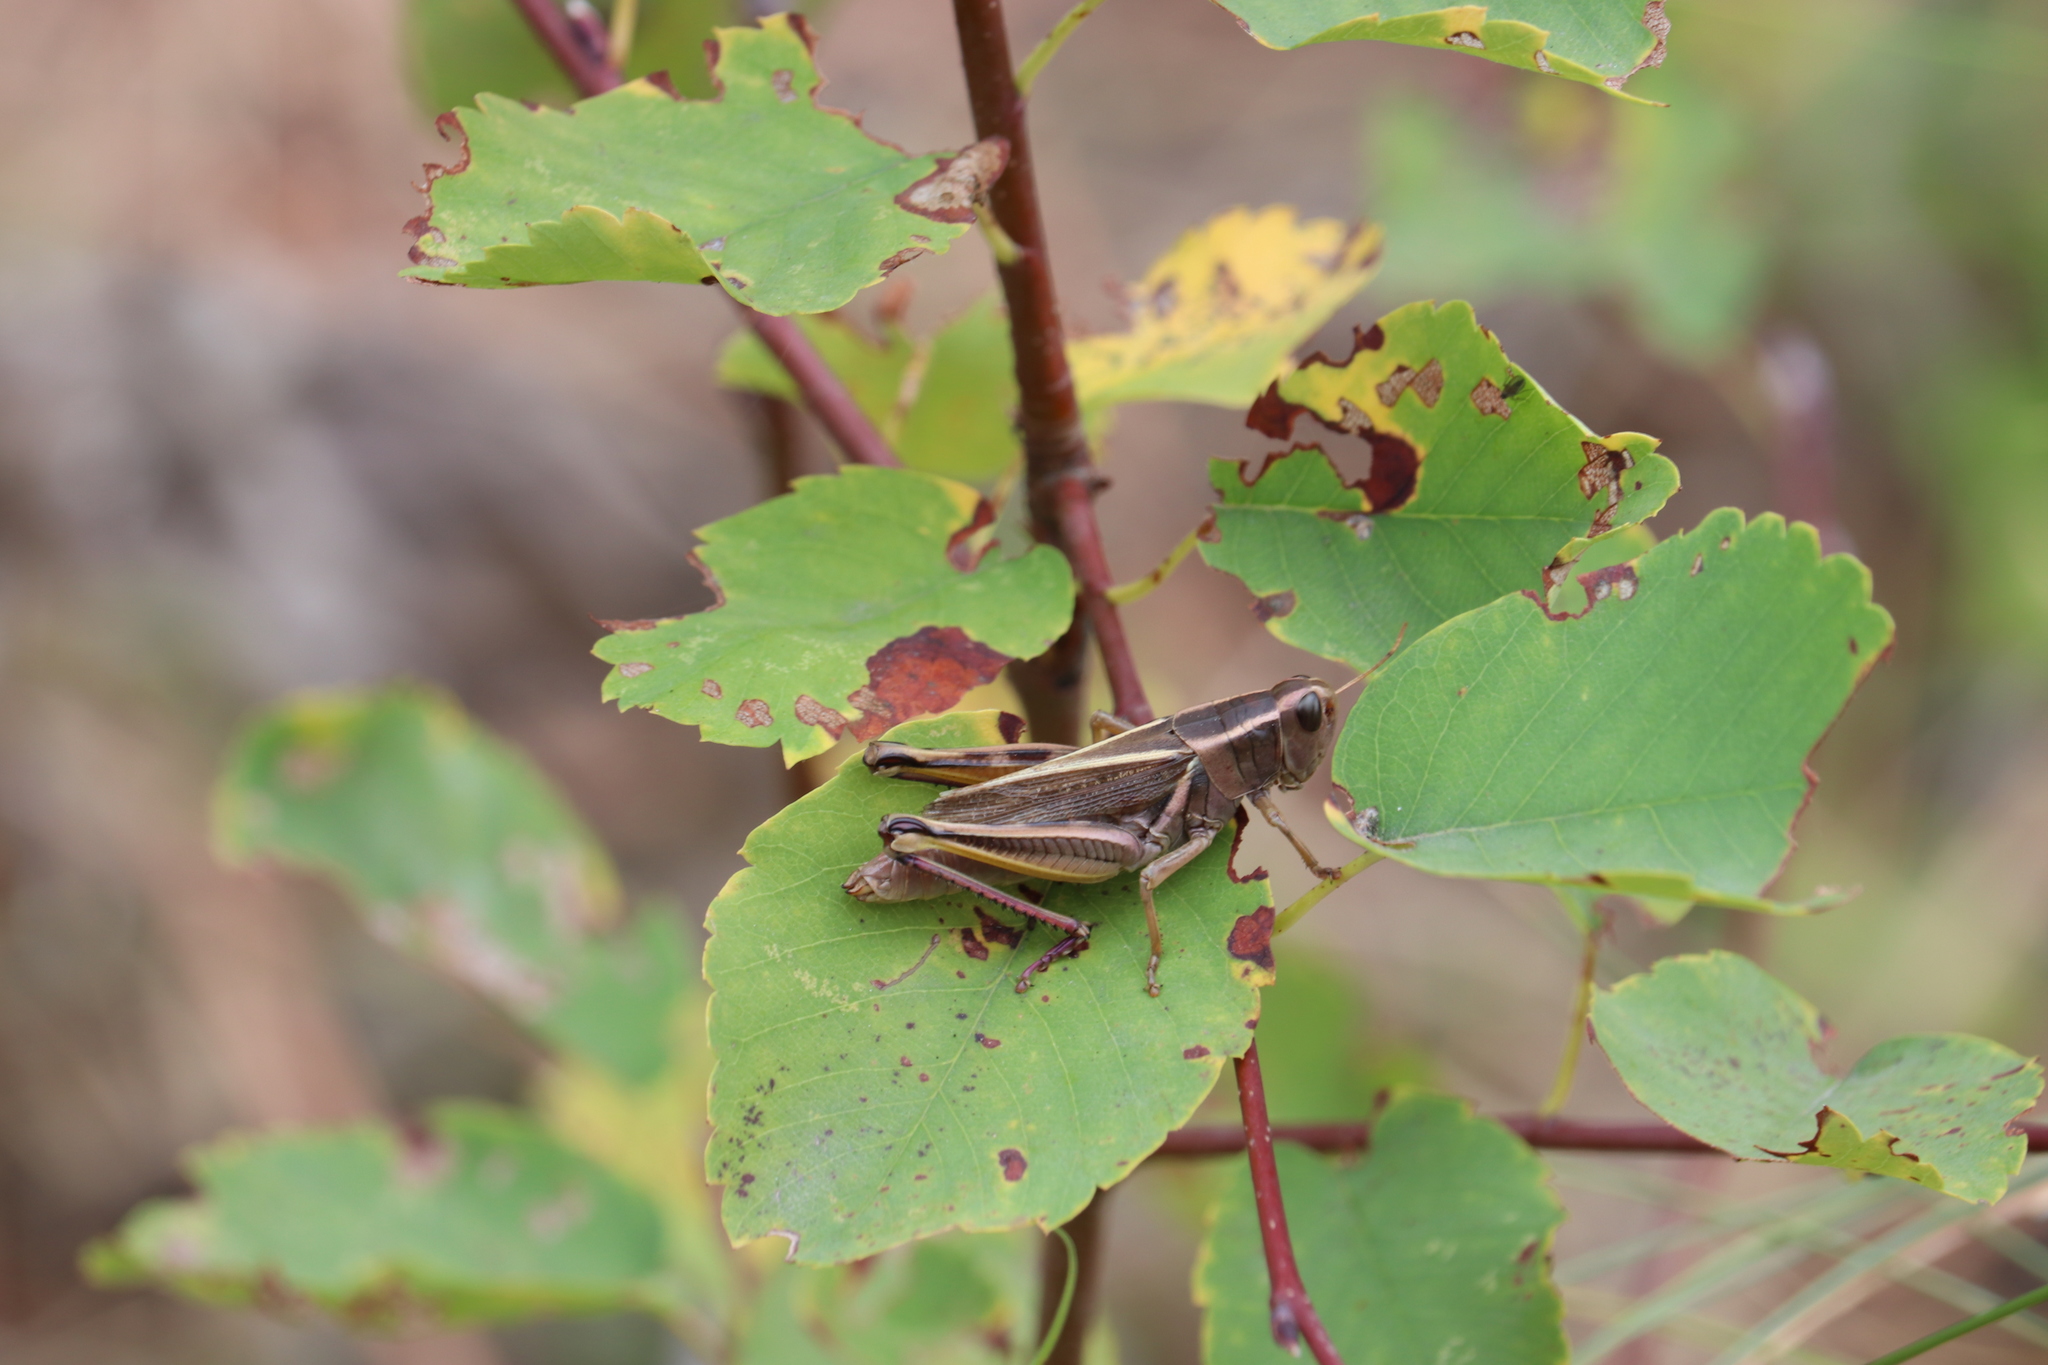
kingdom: Animalia
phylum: Arthropoda
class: Insecta
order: Orthoptera
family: Acrididae
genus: Melanoplus
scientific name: Melanoplus bivittatus
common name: Two-striped grasshopper
